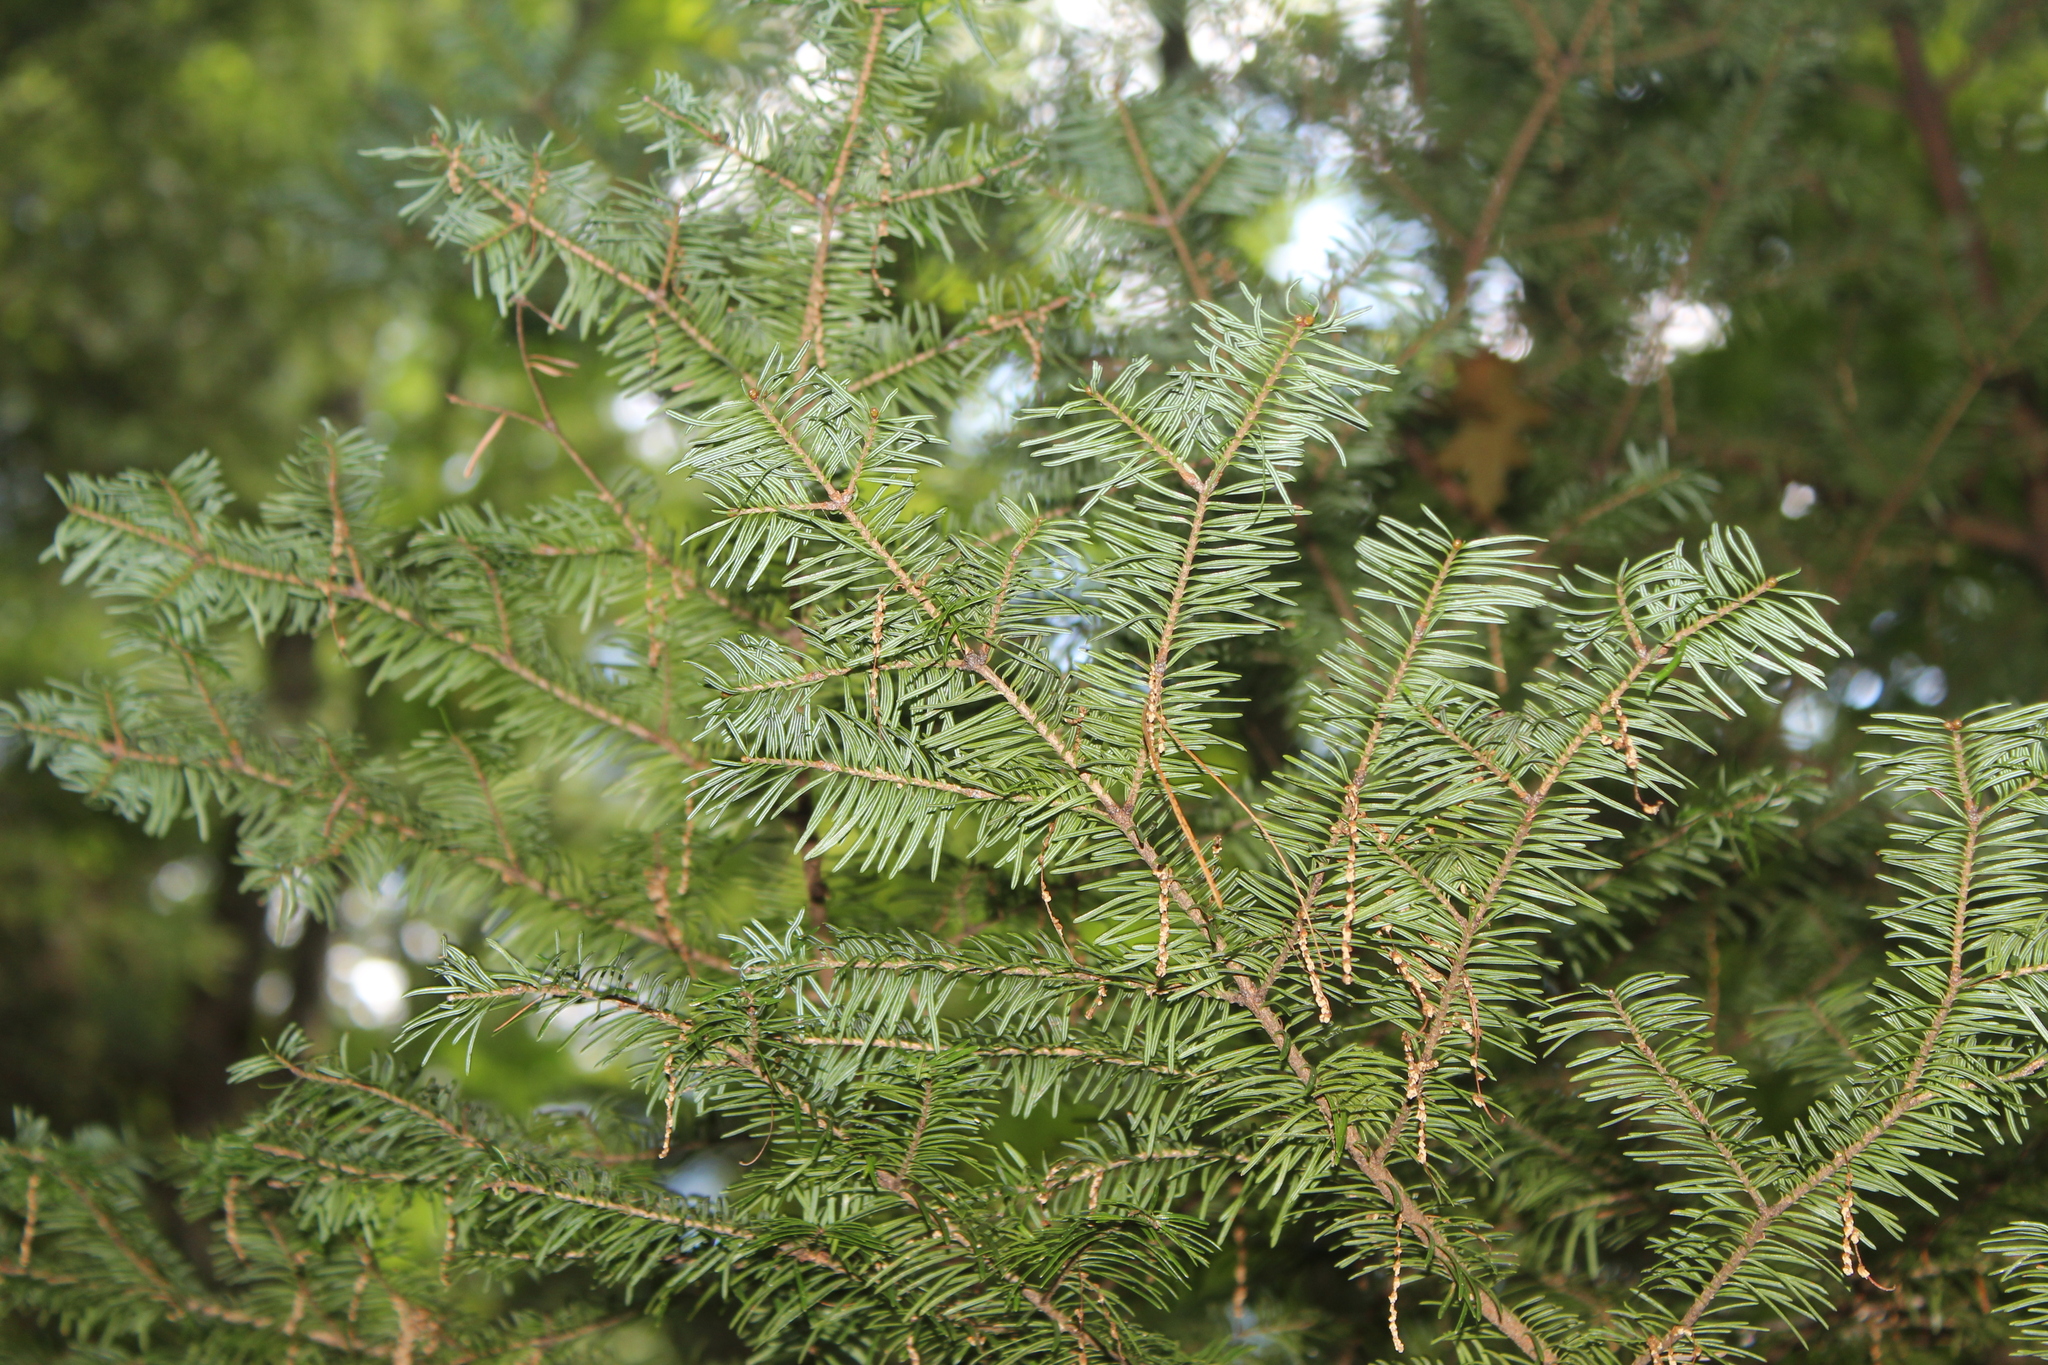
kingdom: Plantae
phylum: Tracheophyta
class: Pinopsida
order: Pinales
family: Pinaceae
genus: Abies
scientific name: Abies balsamea
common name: Balsam fir
